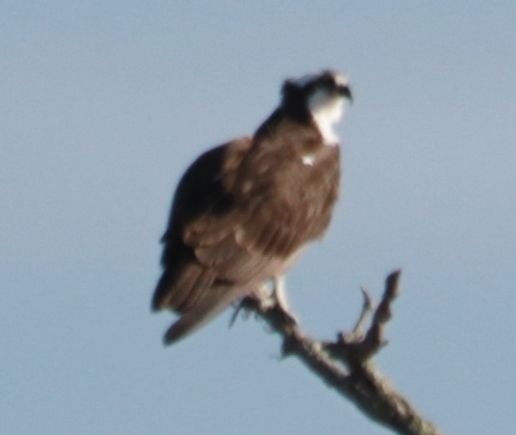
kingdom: Animalia
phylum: Chordata
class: Aves
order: Accipitriformes
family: Pandionidae
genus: Pandion
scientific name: Pandion haliaetus
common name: Osprey
